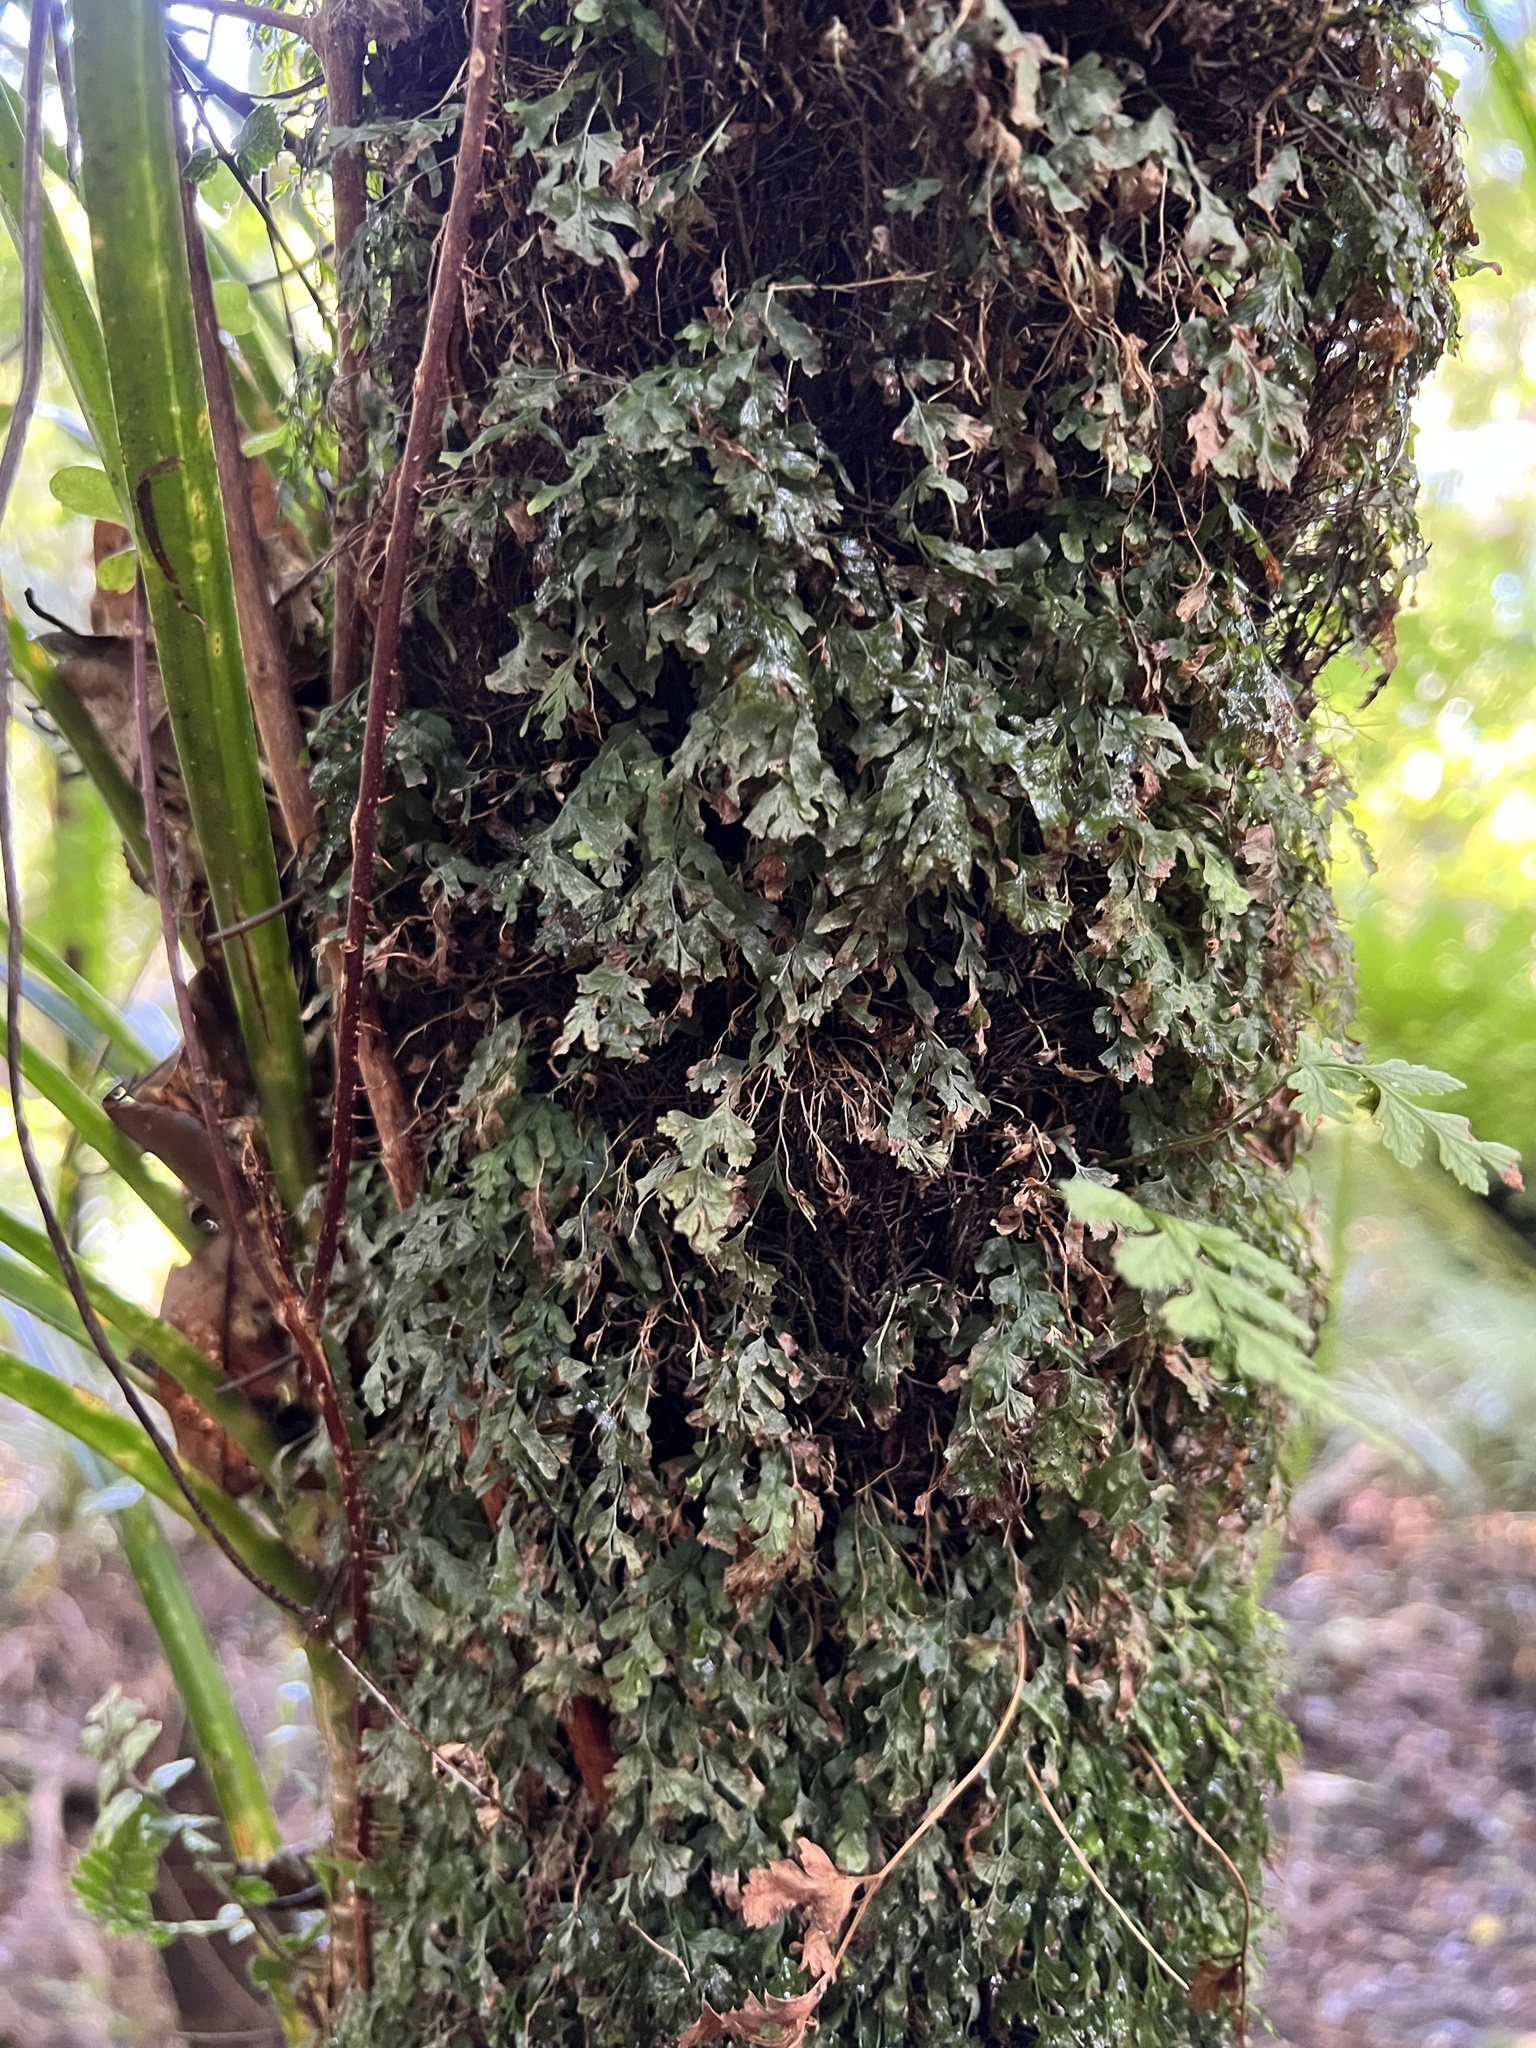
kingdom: Plantae
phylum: Tracheophyta
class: Polypodiopsida
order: Hymenophyllales
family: Hymenophyllaceae
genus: Polyphlebium
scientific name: Polyphlebium venosum
